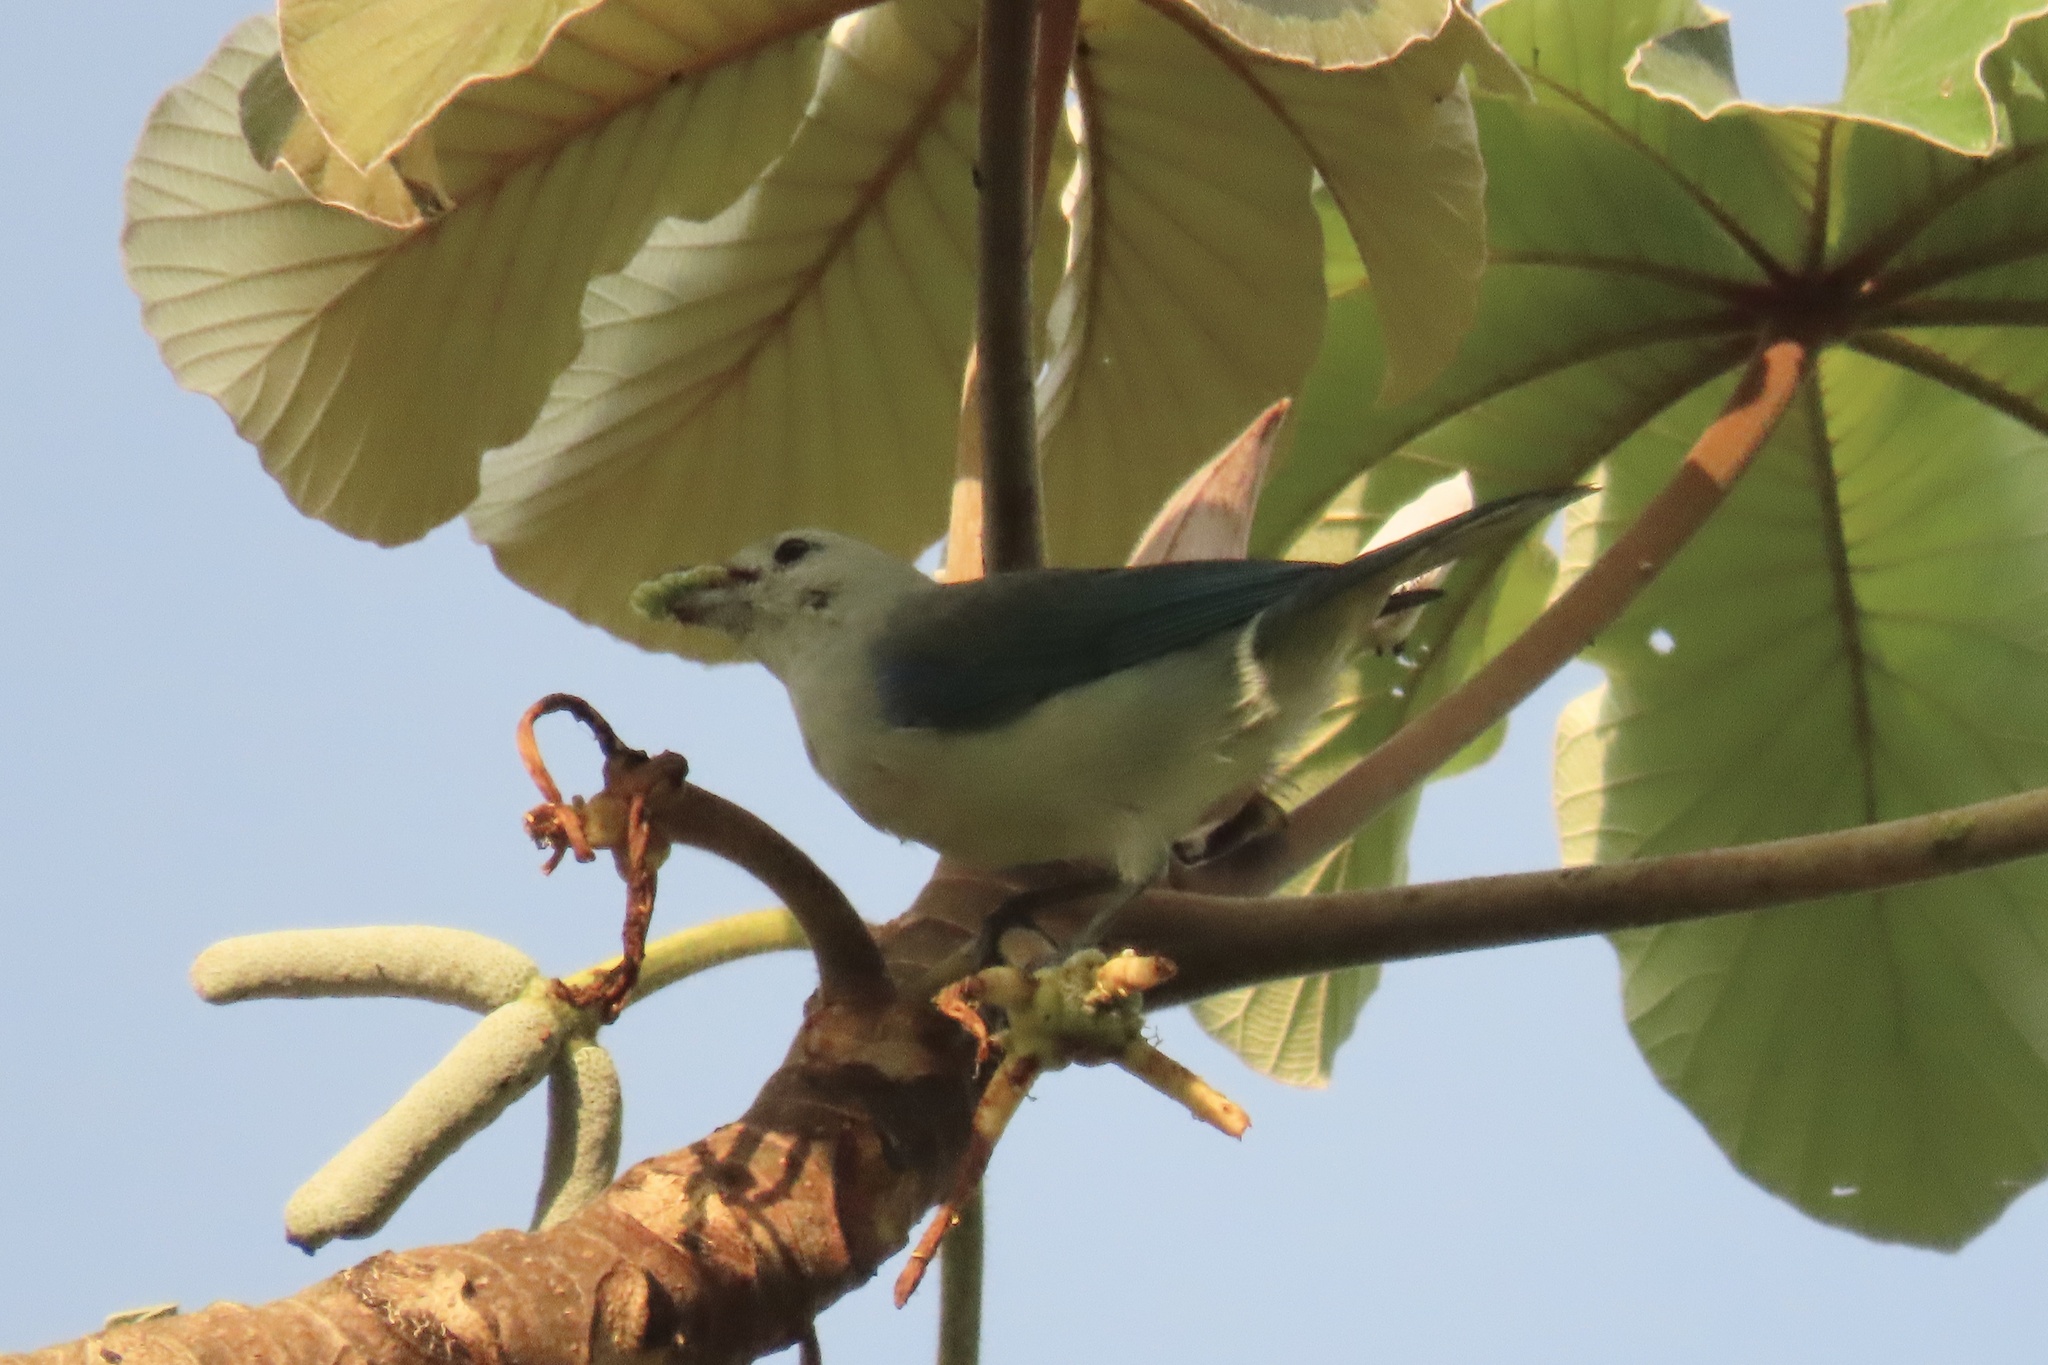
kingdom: Animalia
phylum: Chordata
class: Aves
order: Passeriformes
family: Thraupidae
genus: Thraupis
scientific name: Thraupis episcopus
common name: Blue-grey tanager
